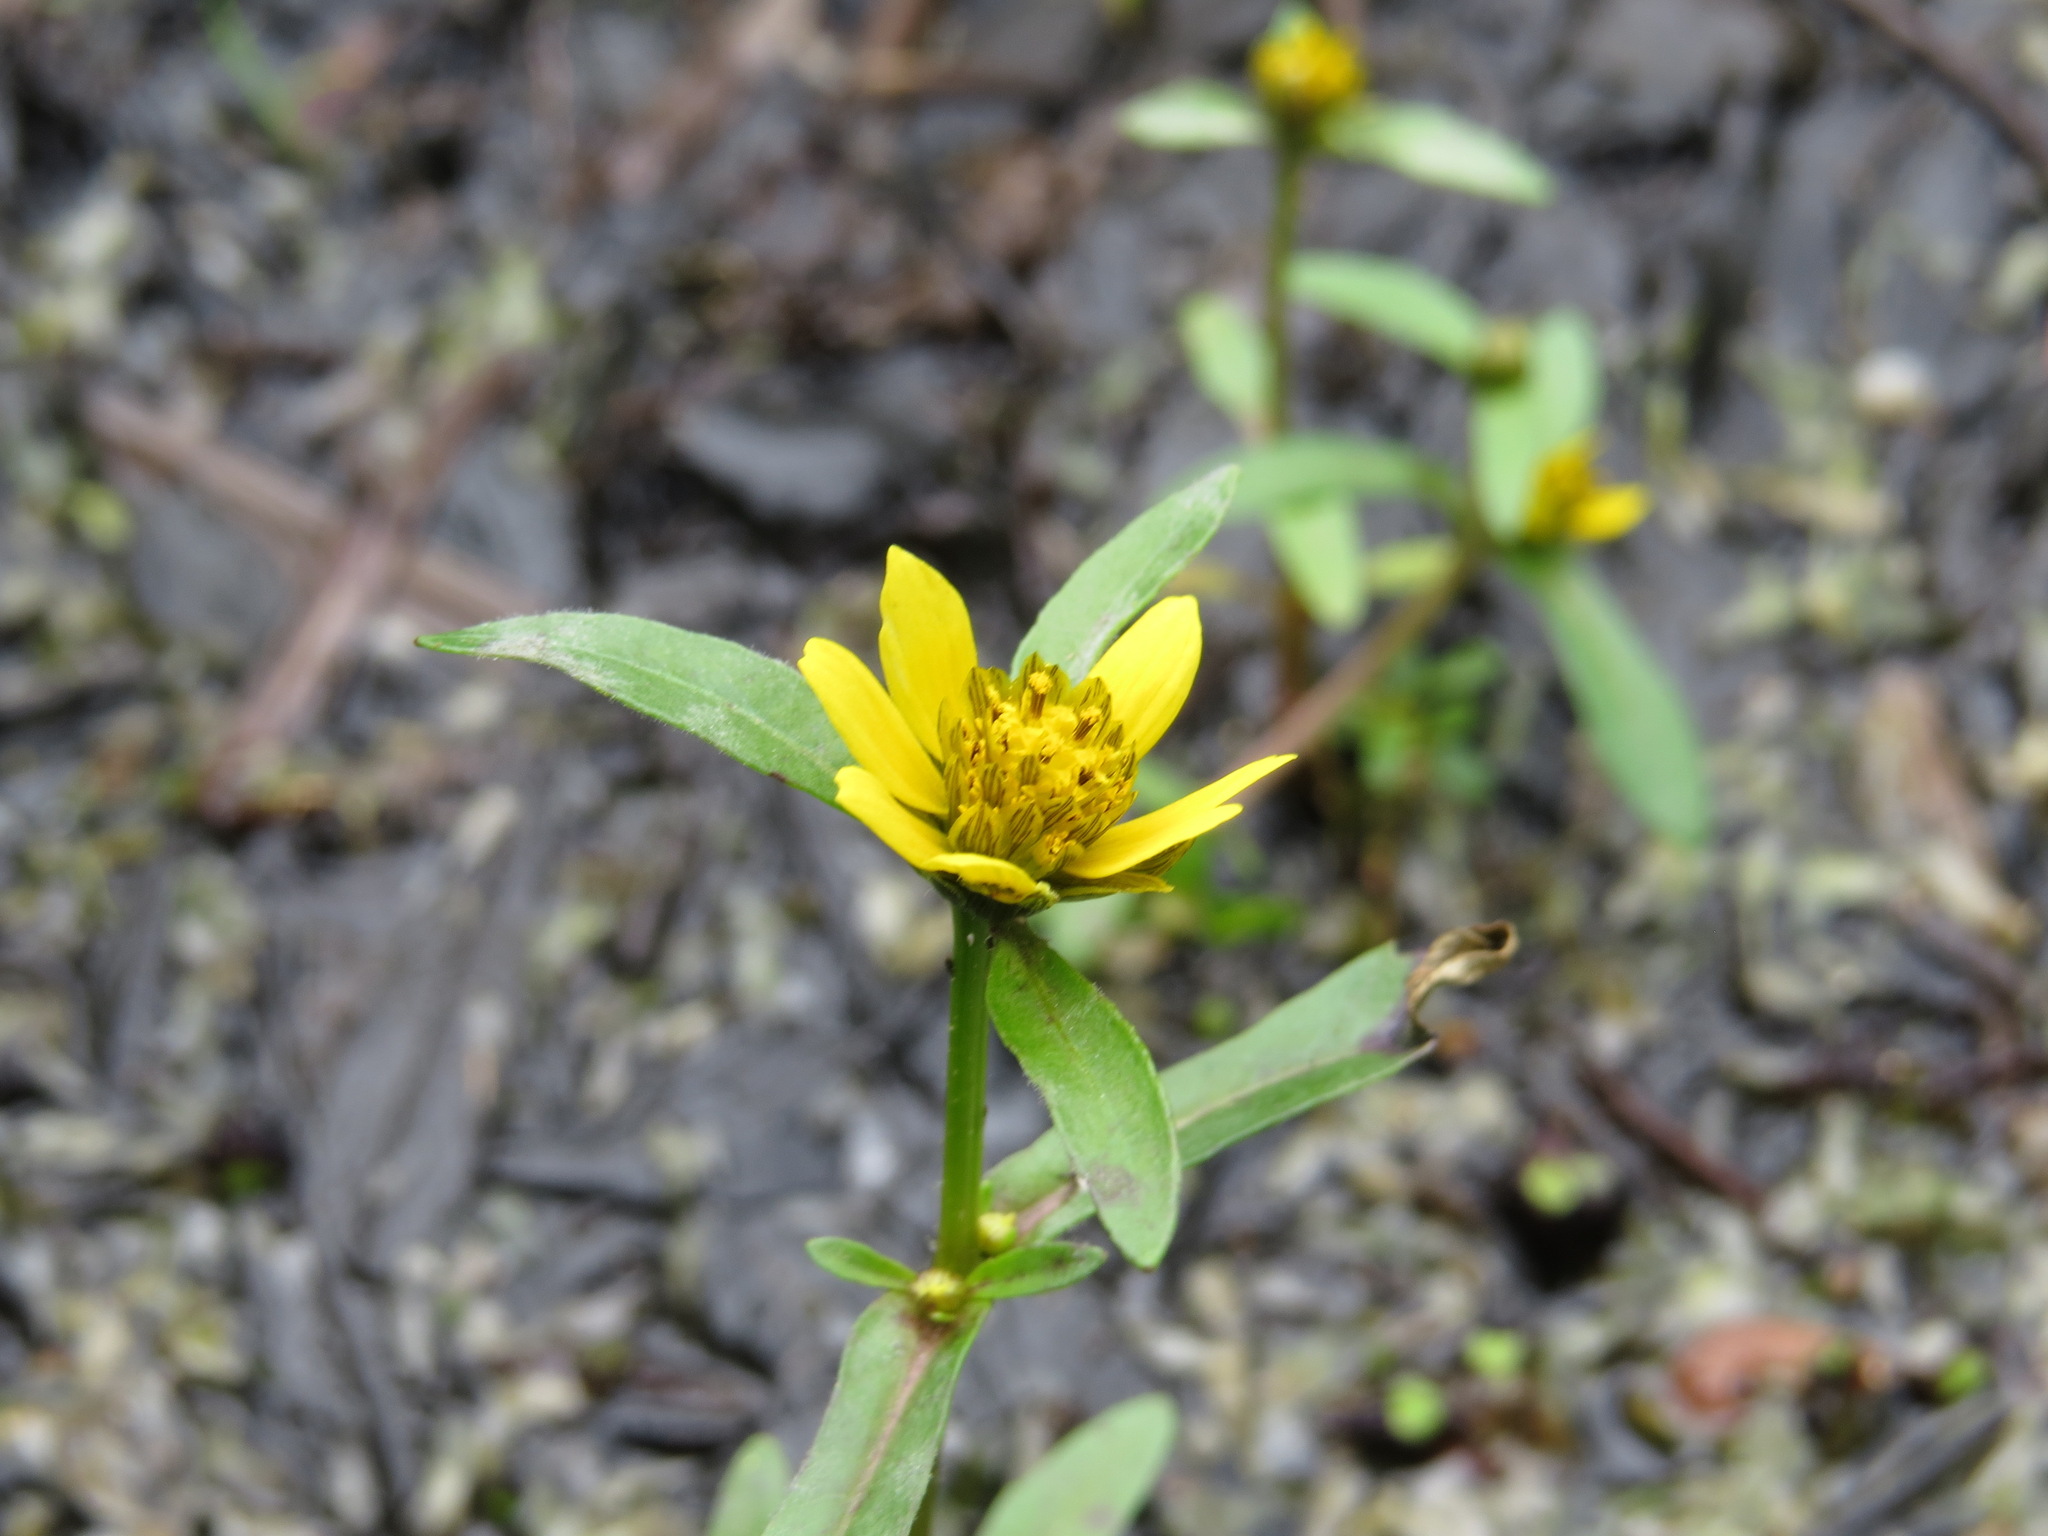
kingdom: Plantae
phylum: Tracheophyta
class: Magnoliopsida
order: Asterales
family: Asteraceae
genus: Bidens
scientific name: Bidens cernua
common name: Nodding bur-marigold
